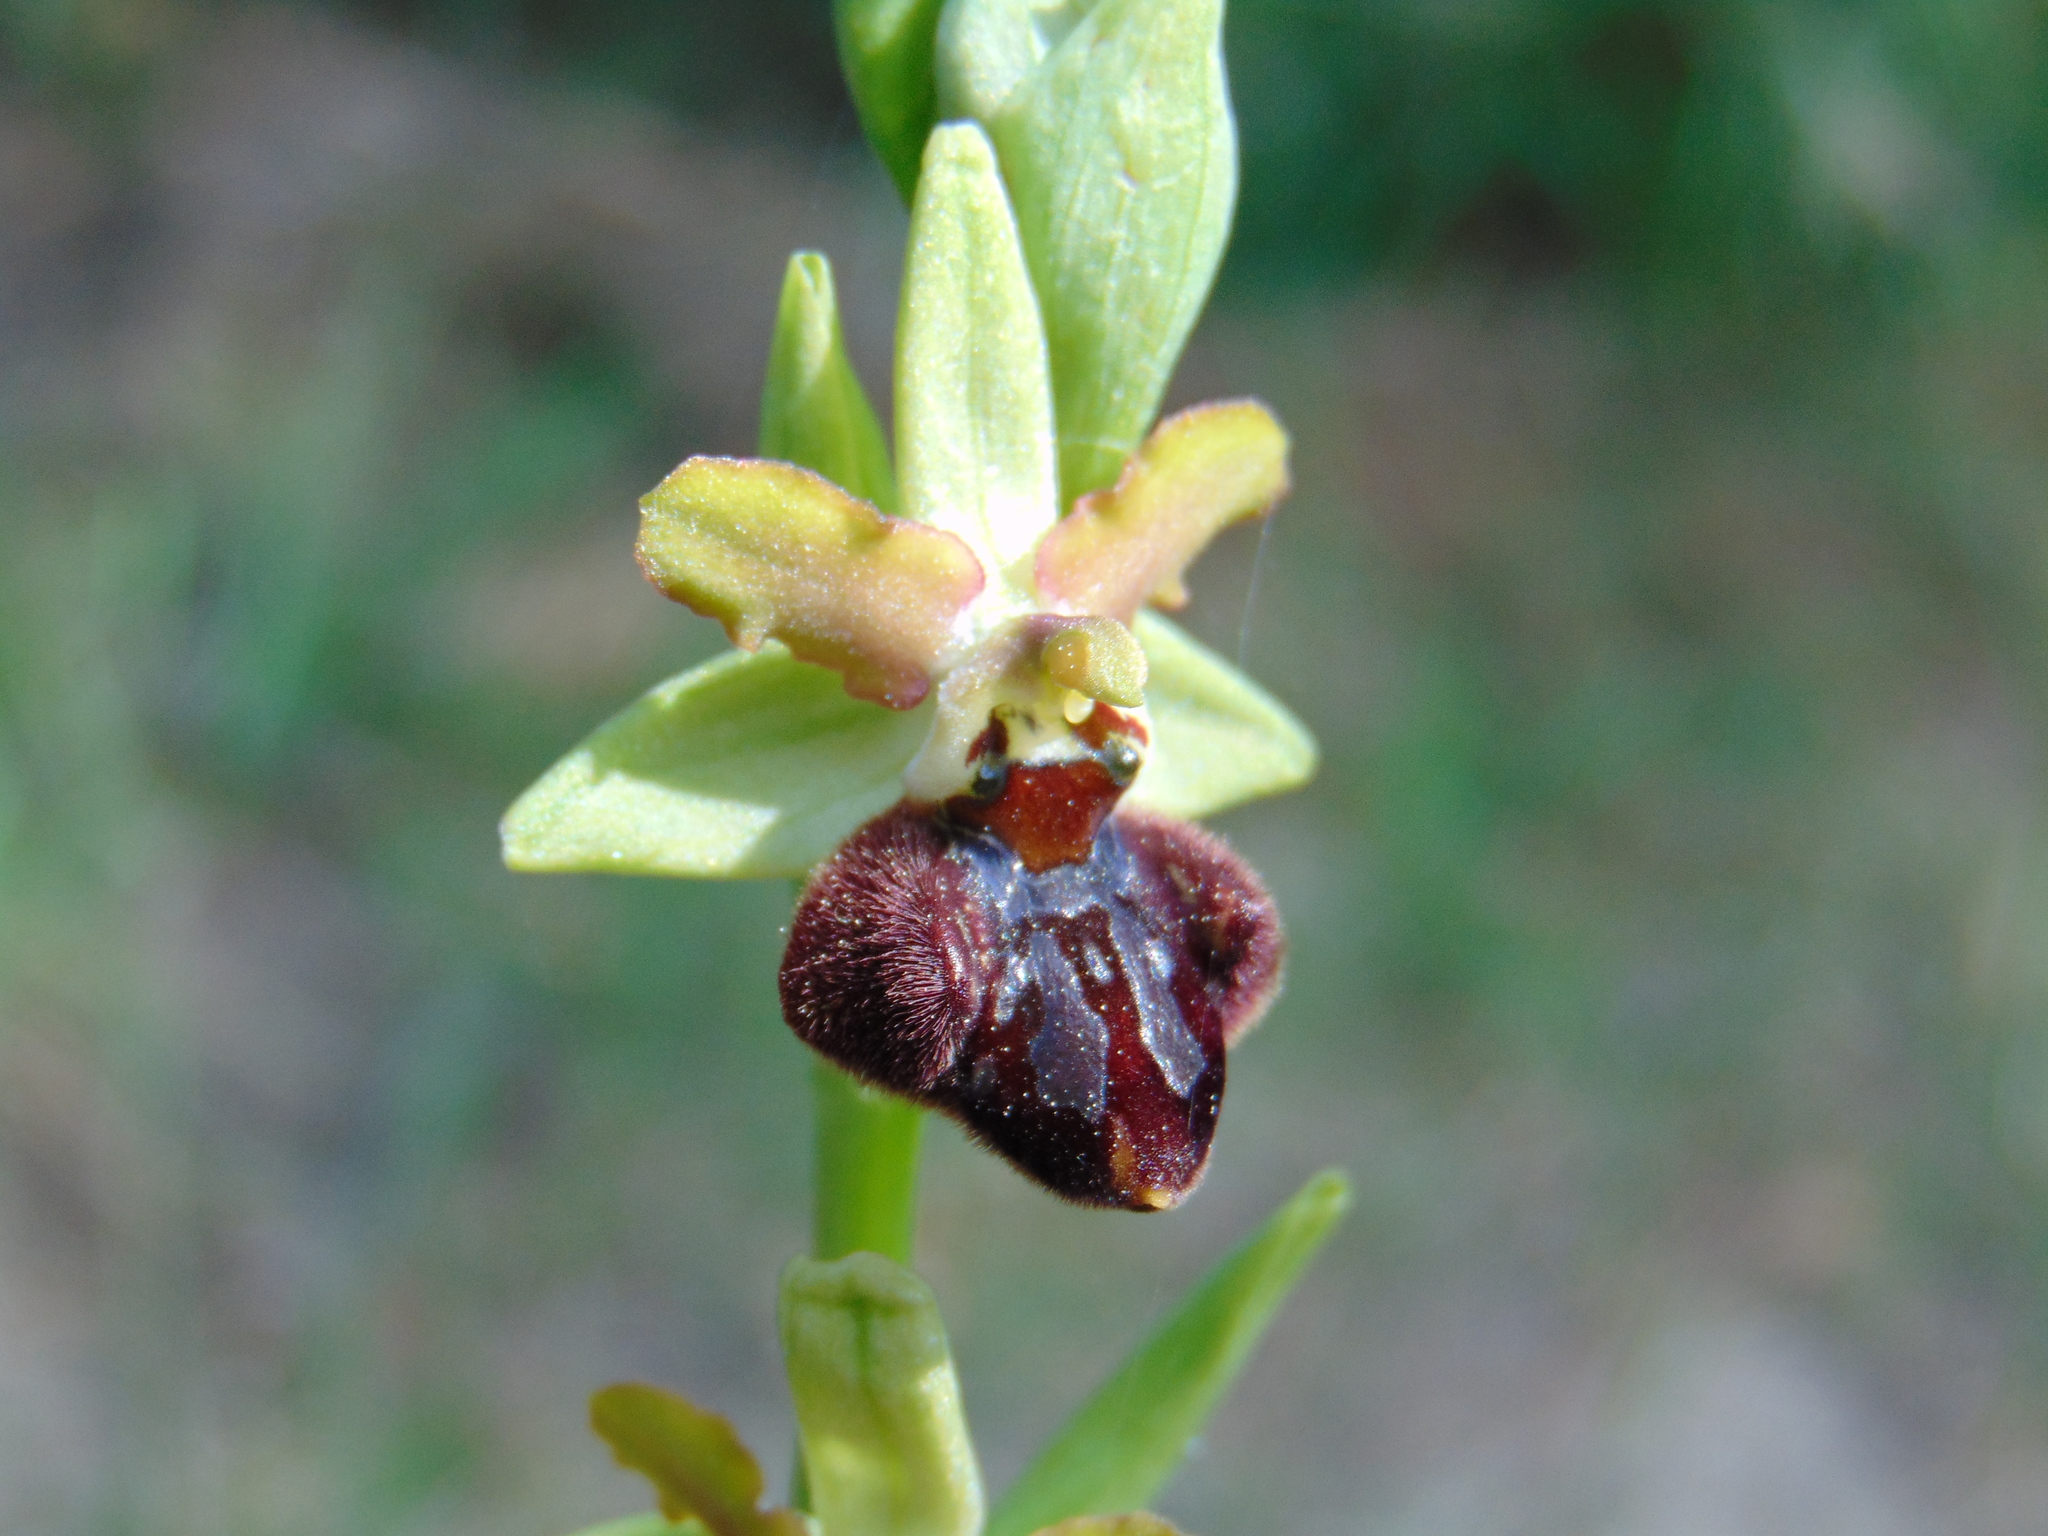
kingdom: Plantae
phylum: Tracheophyta
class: Liliopsida
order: Asparagales
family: Orchidaceae
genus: Ophrys
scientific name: Ophrys sphegodes
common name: Early spider-orchid
